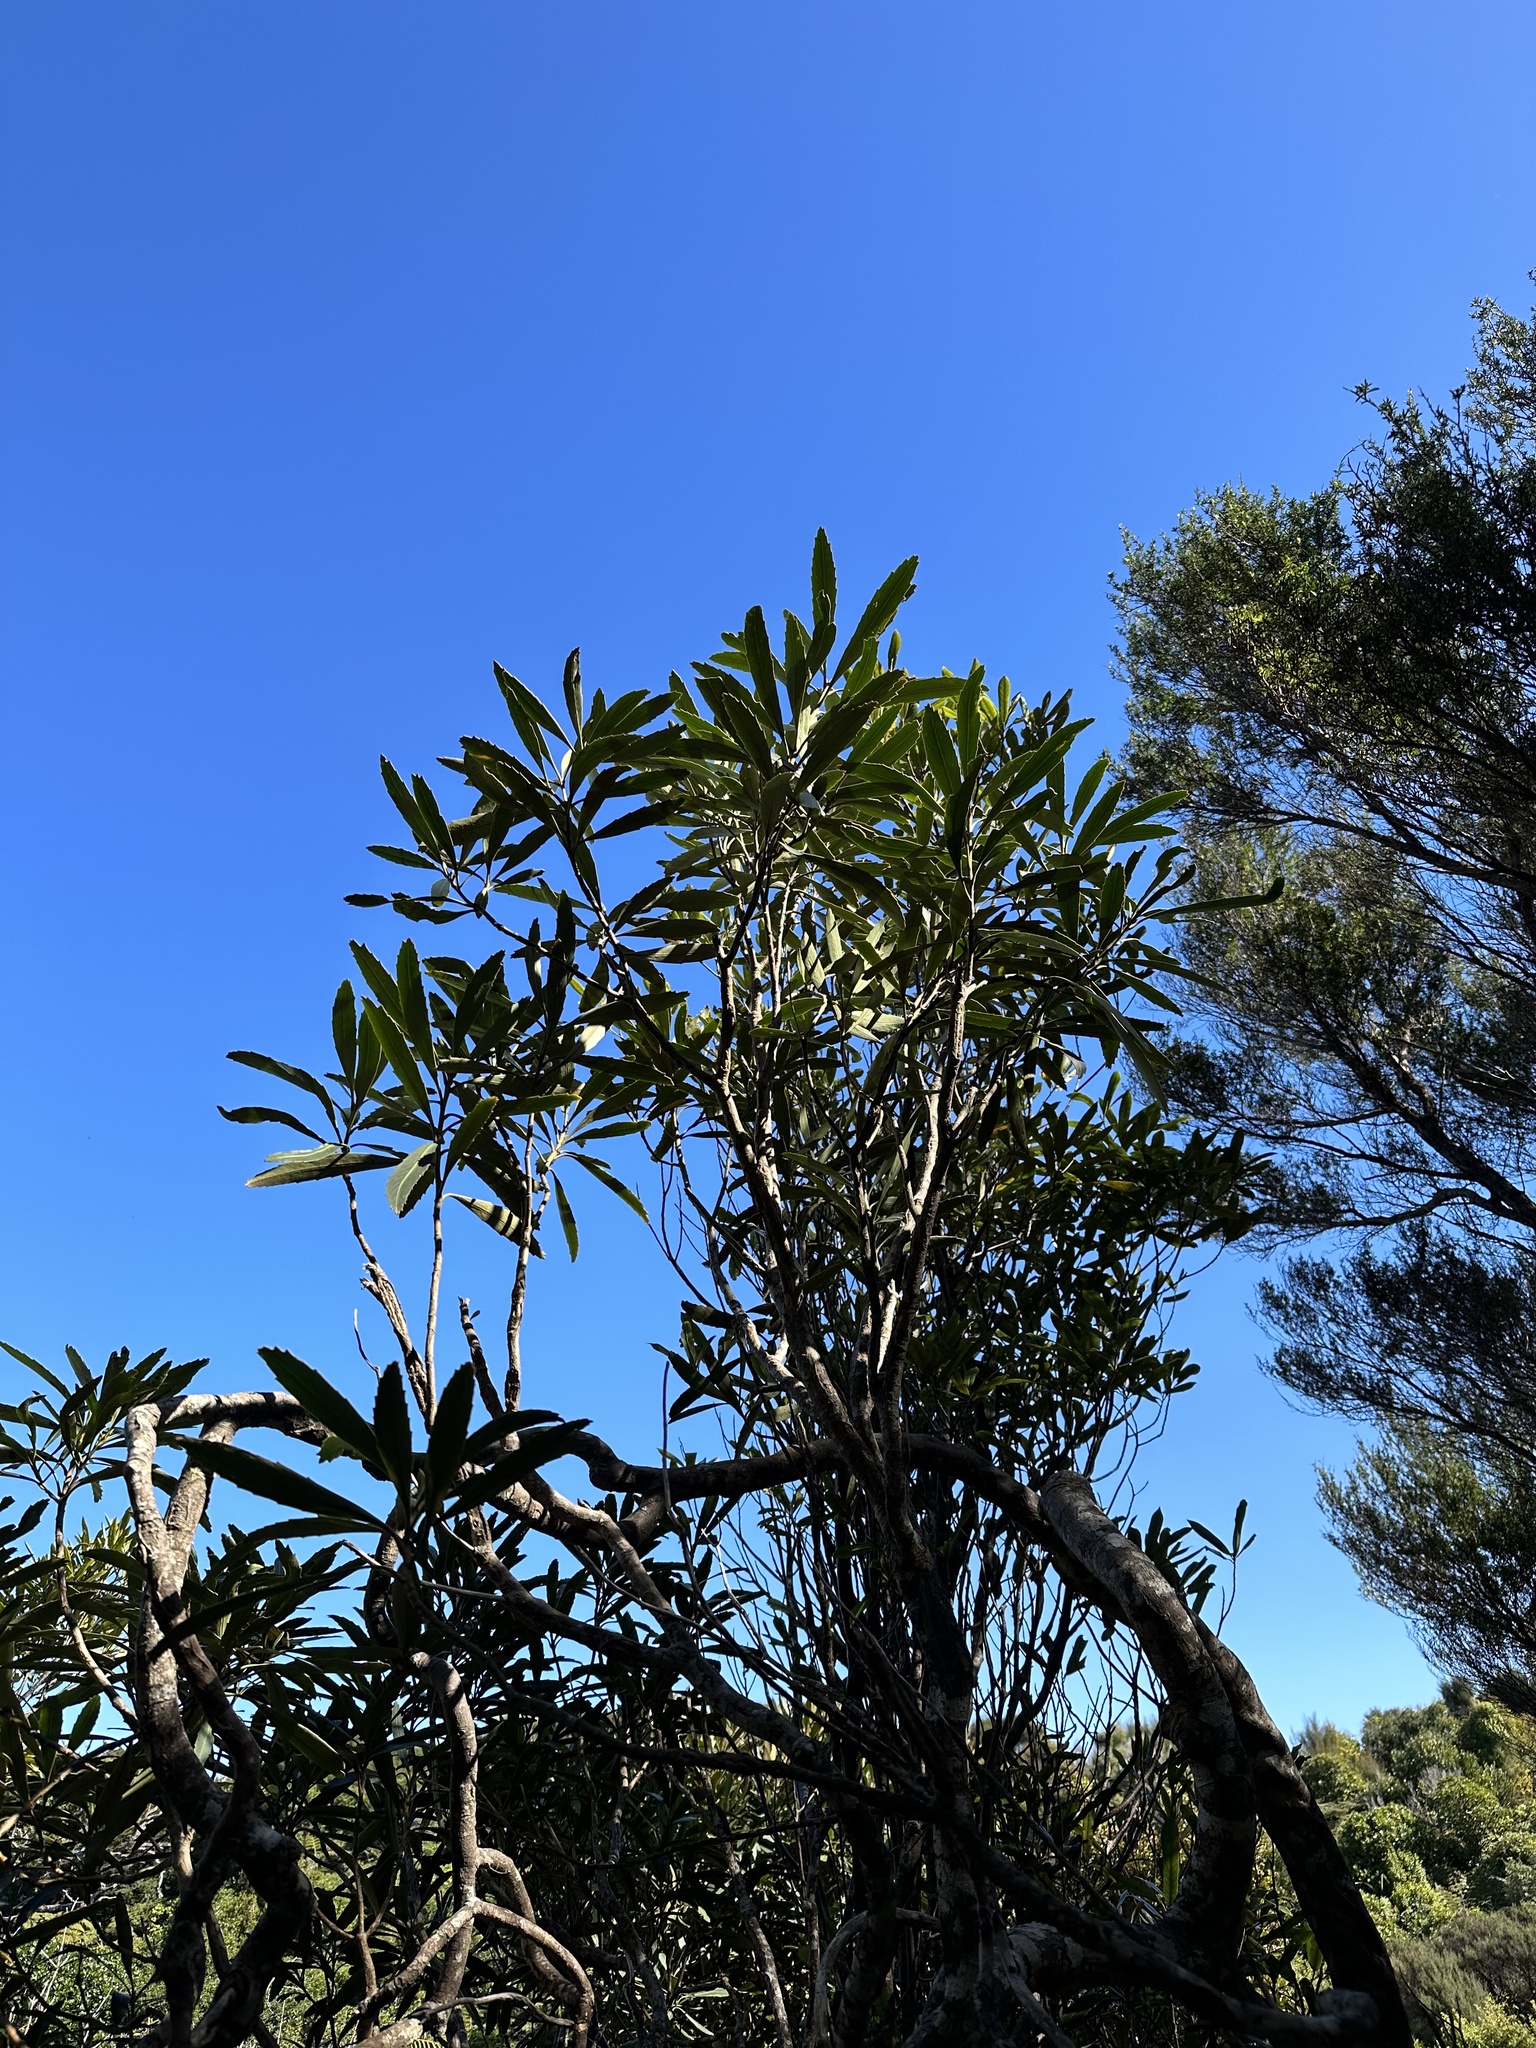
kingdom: Plantae
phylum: Tracheophyta
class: Magnoliopsida
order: Apiales
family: Araliaceae
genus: Pseudopanax
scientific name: Pseudopanax crassifolius
